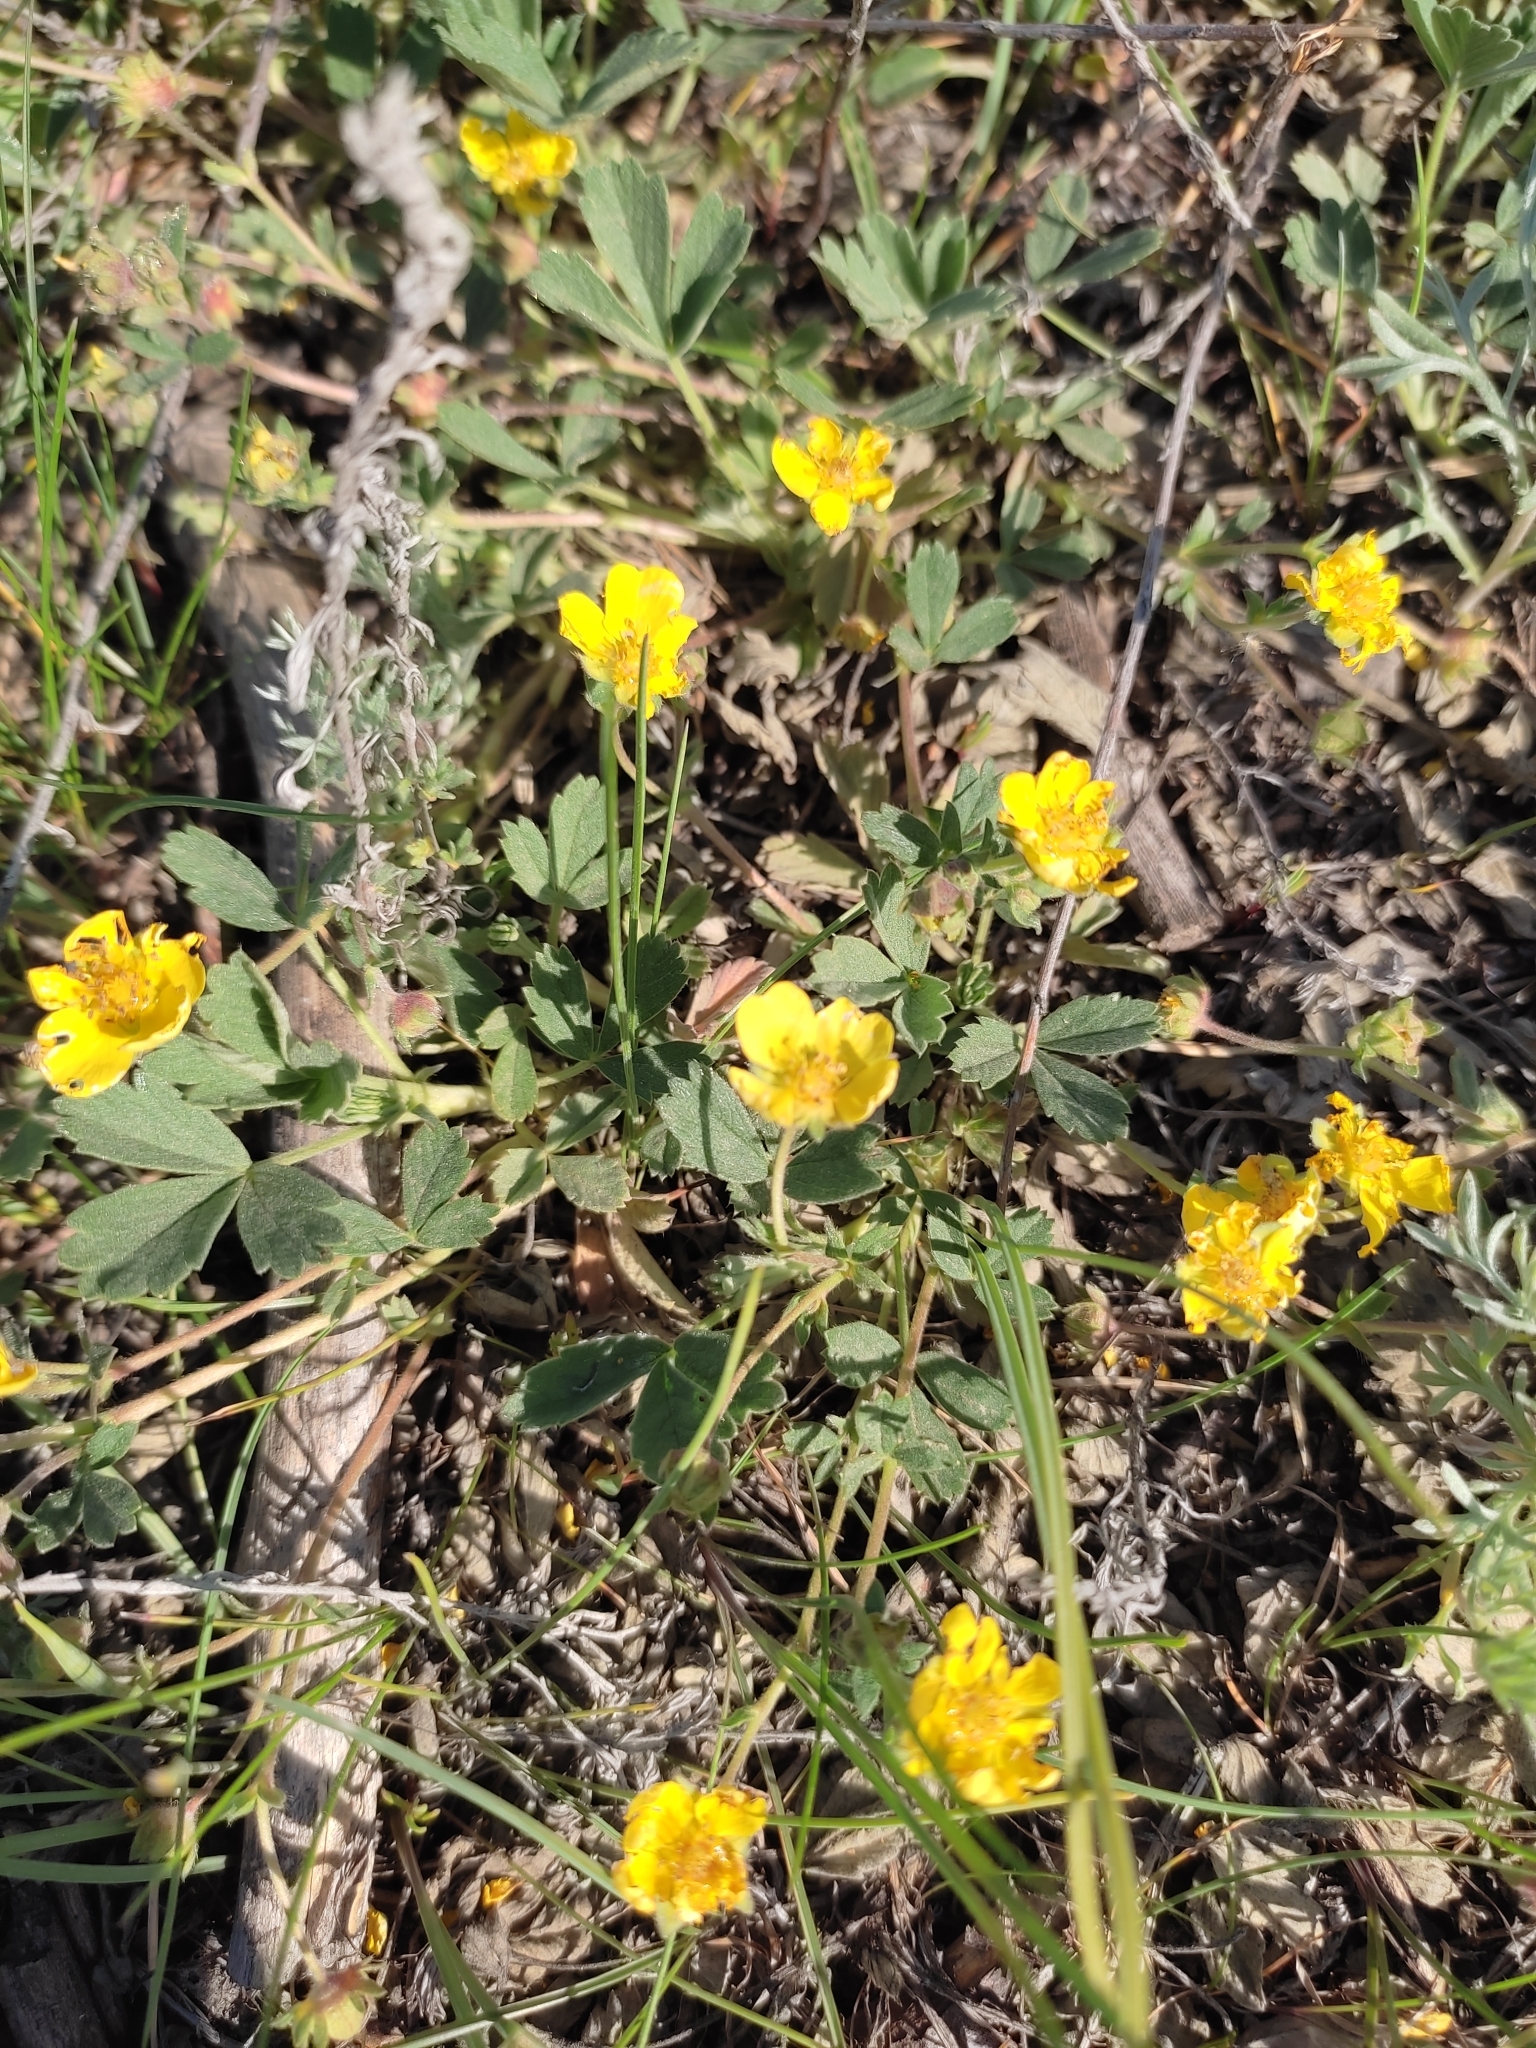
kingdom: Plantae
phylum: Tracheophyta
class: Magnoliopsida
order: Rosales
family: Rosaceae
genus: Potentilla
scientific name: Potentilla incana
